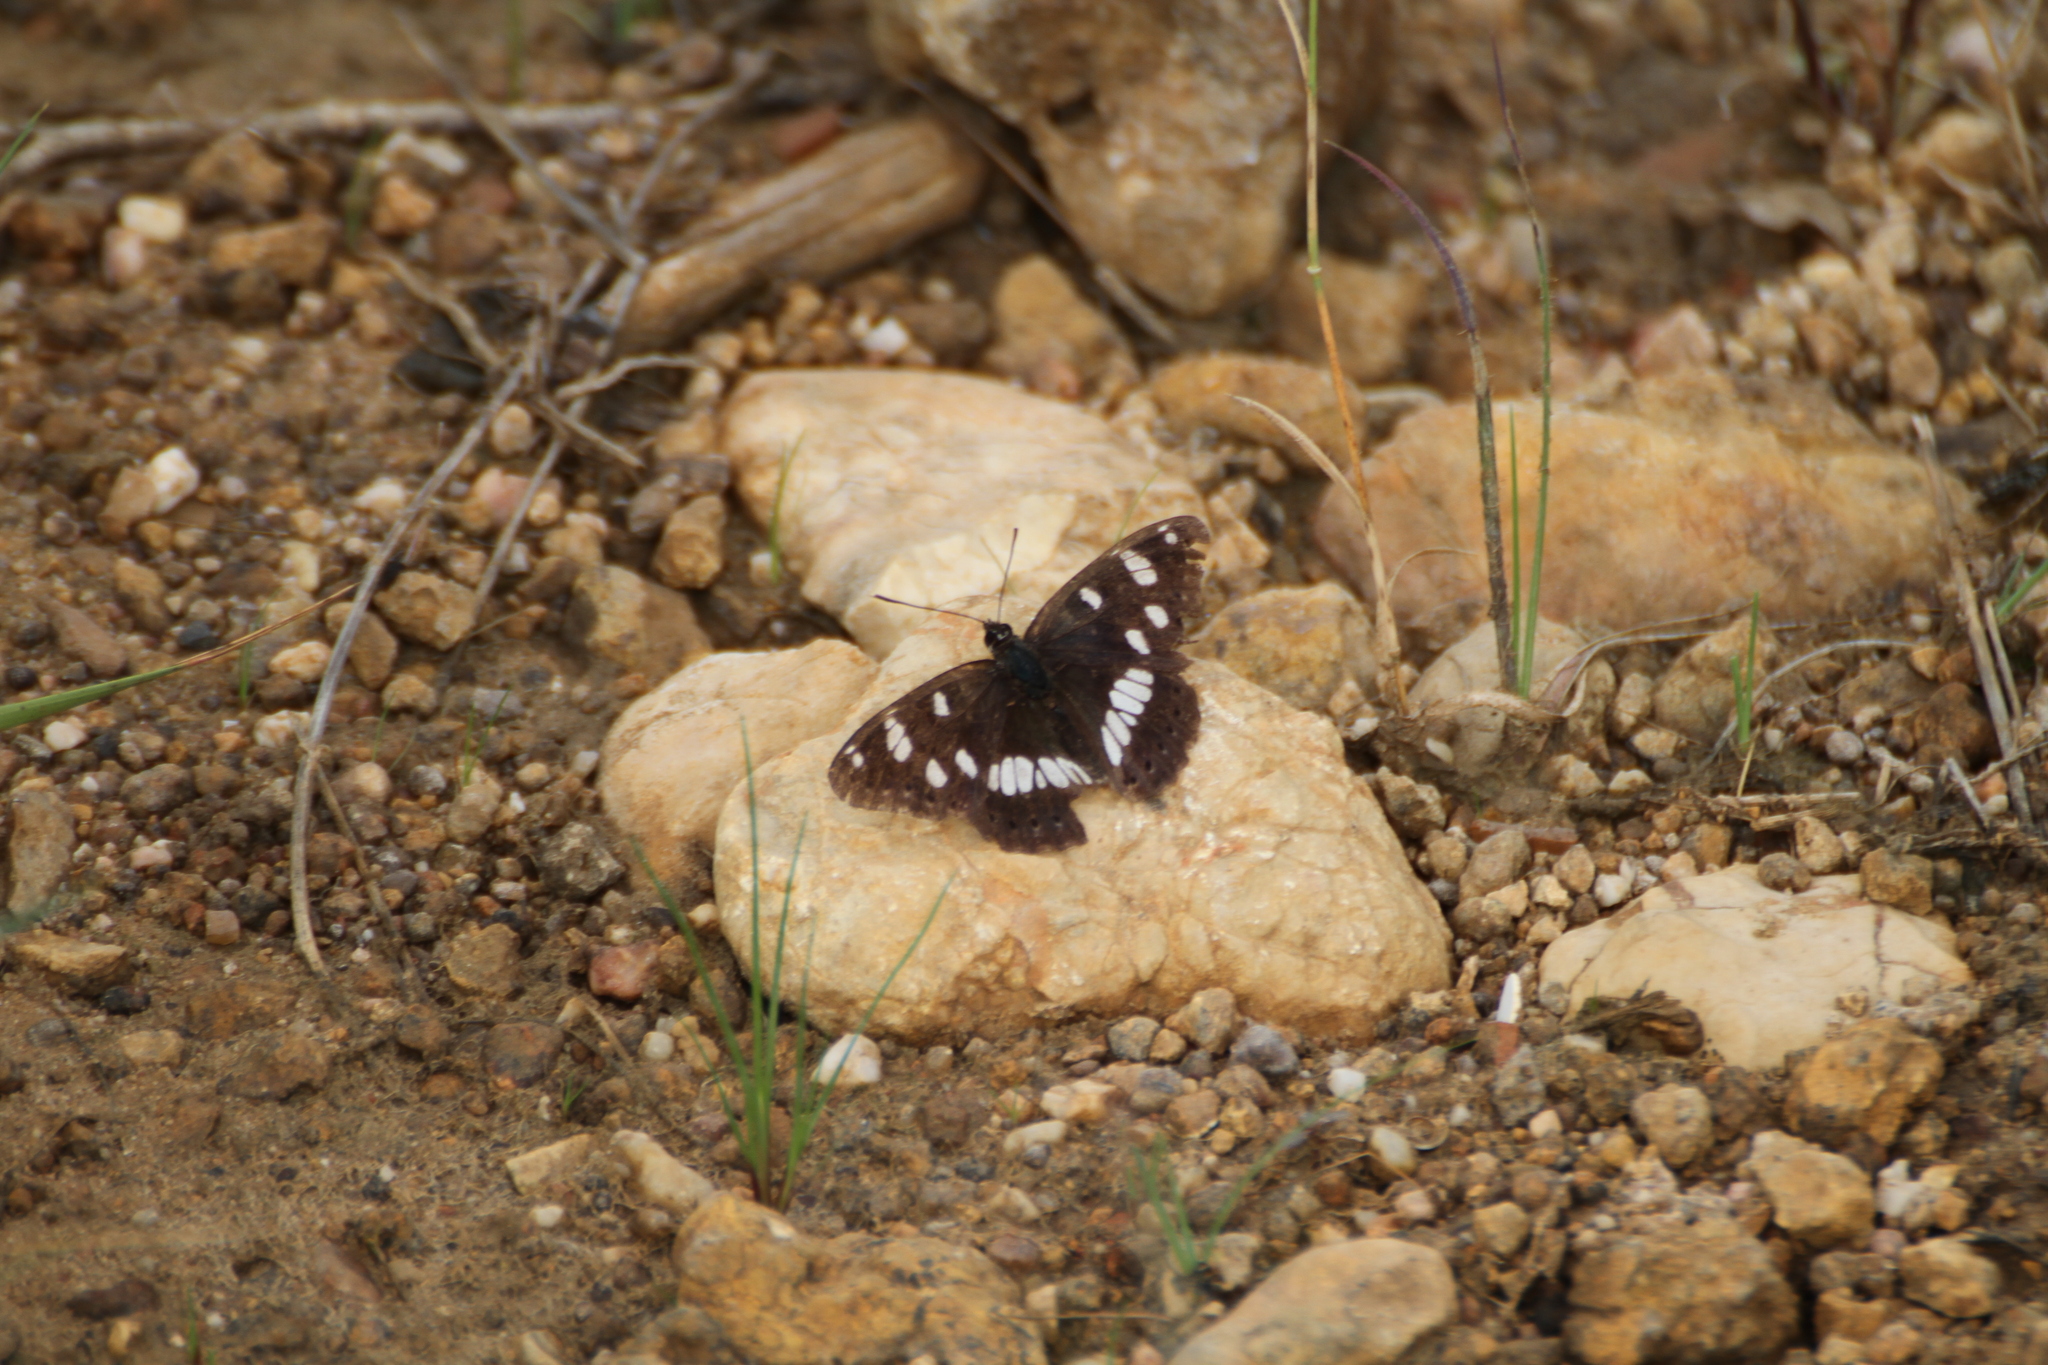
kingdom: Animalia
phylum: Arthropoda
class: Insecta
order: Lepidoptera
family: Nymphalidae
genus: Limenitis
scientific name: Limenitis reducta
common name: Southern white admiral
